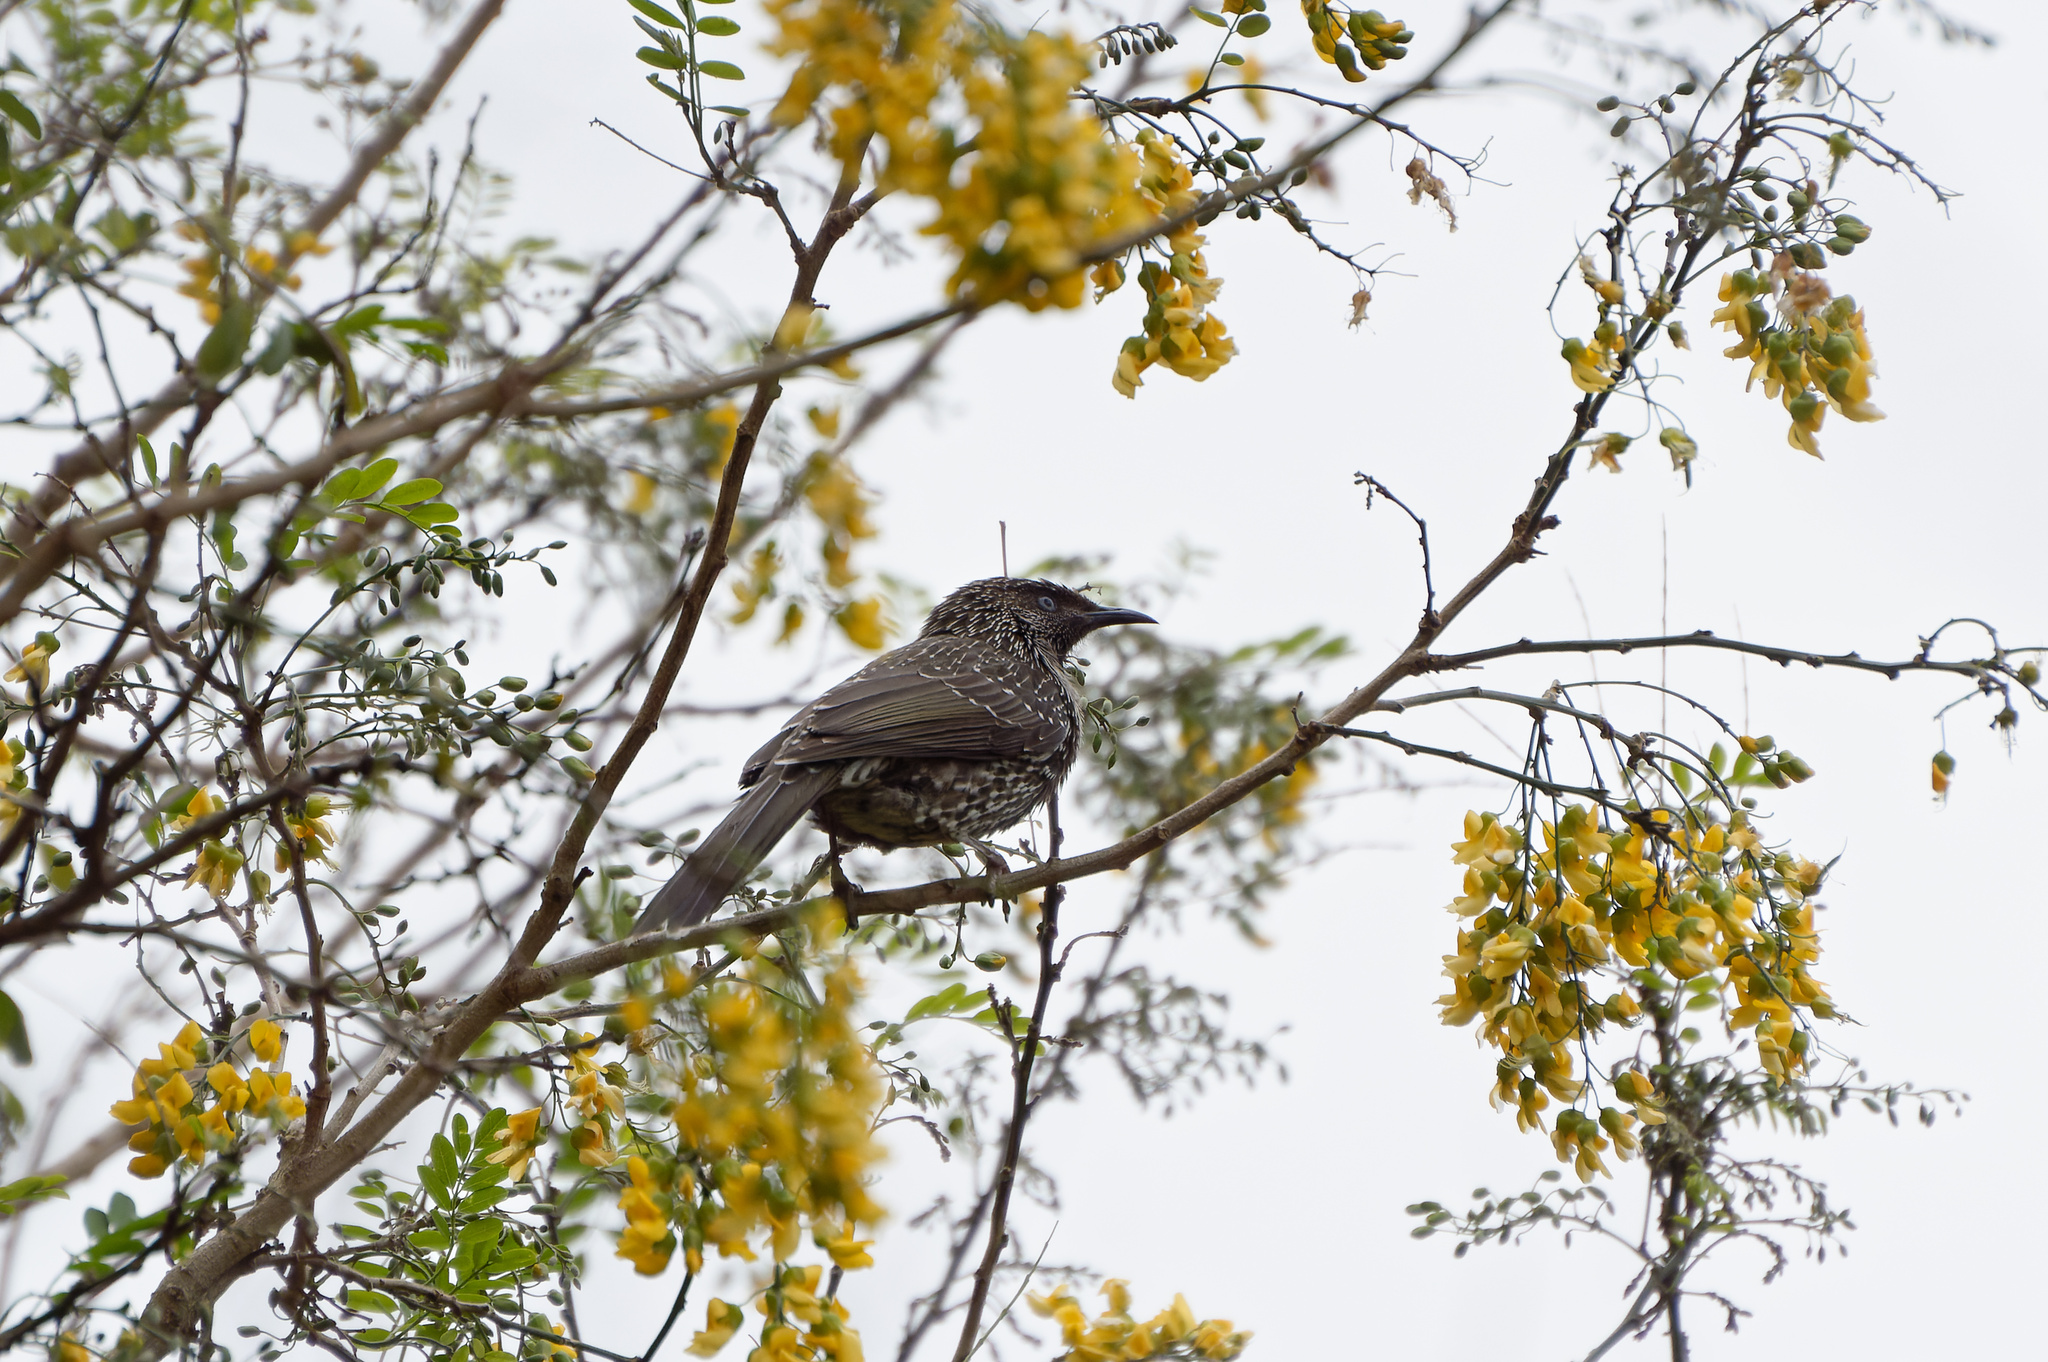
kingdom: Animalia
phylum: Chordata
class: Aves
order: Passeriformes
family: Meliphagidae
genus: Anthochaera
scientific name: Anthochaera chrysoptera
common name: Little wattlebird
